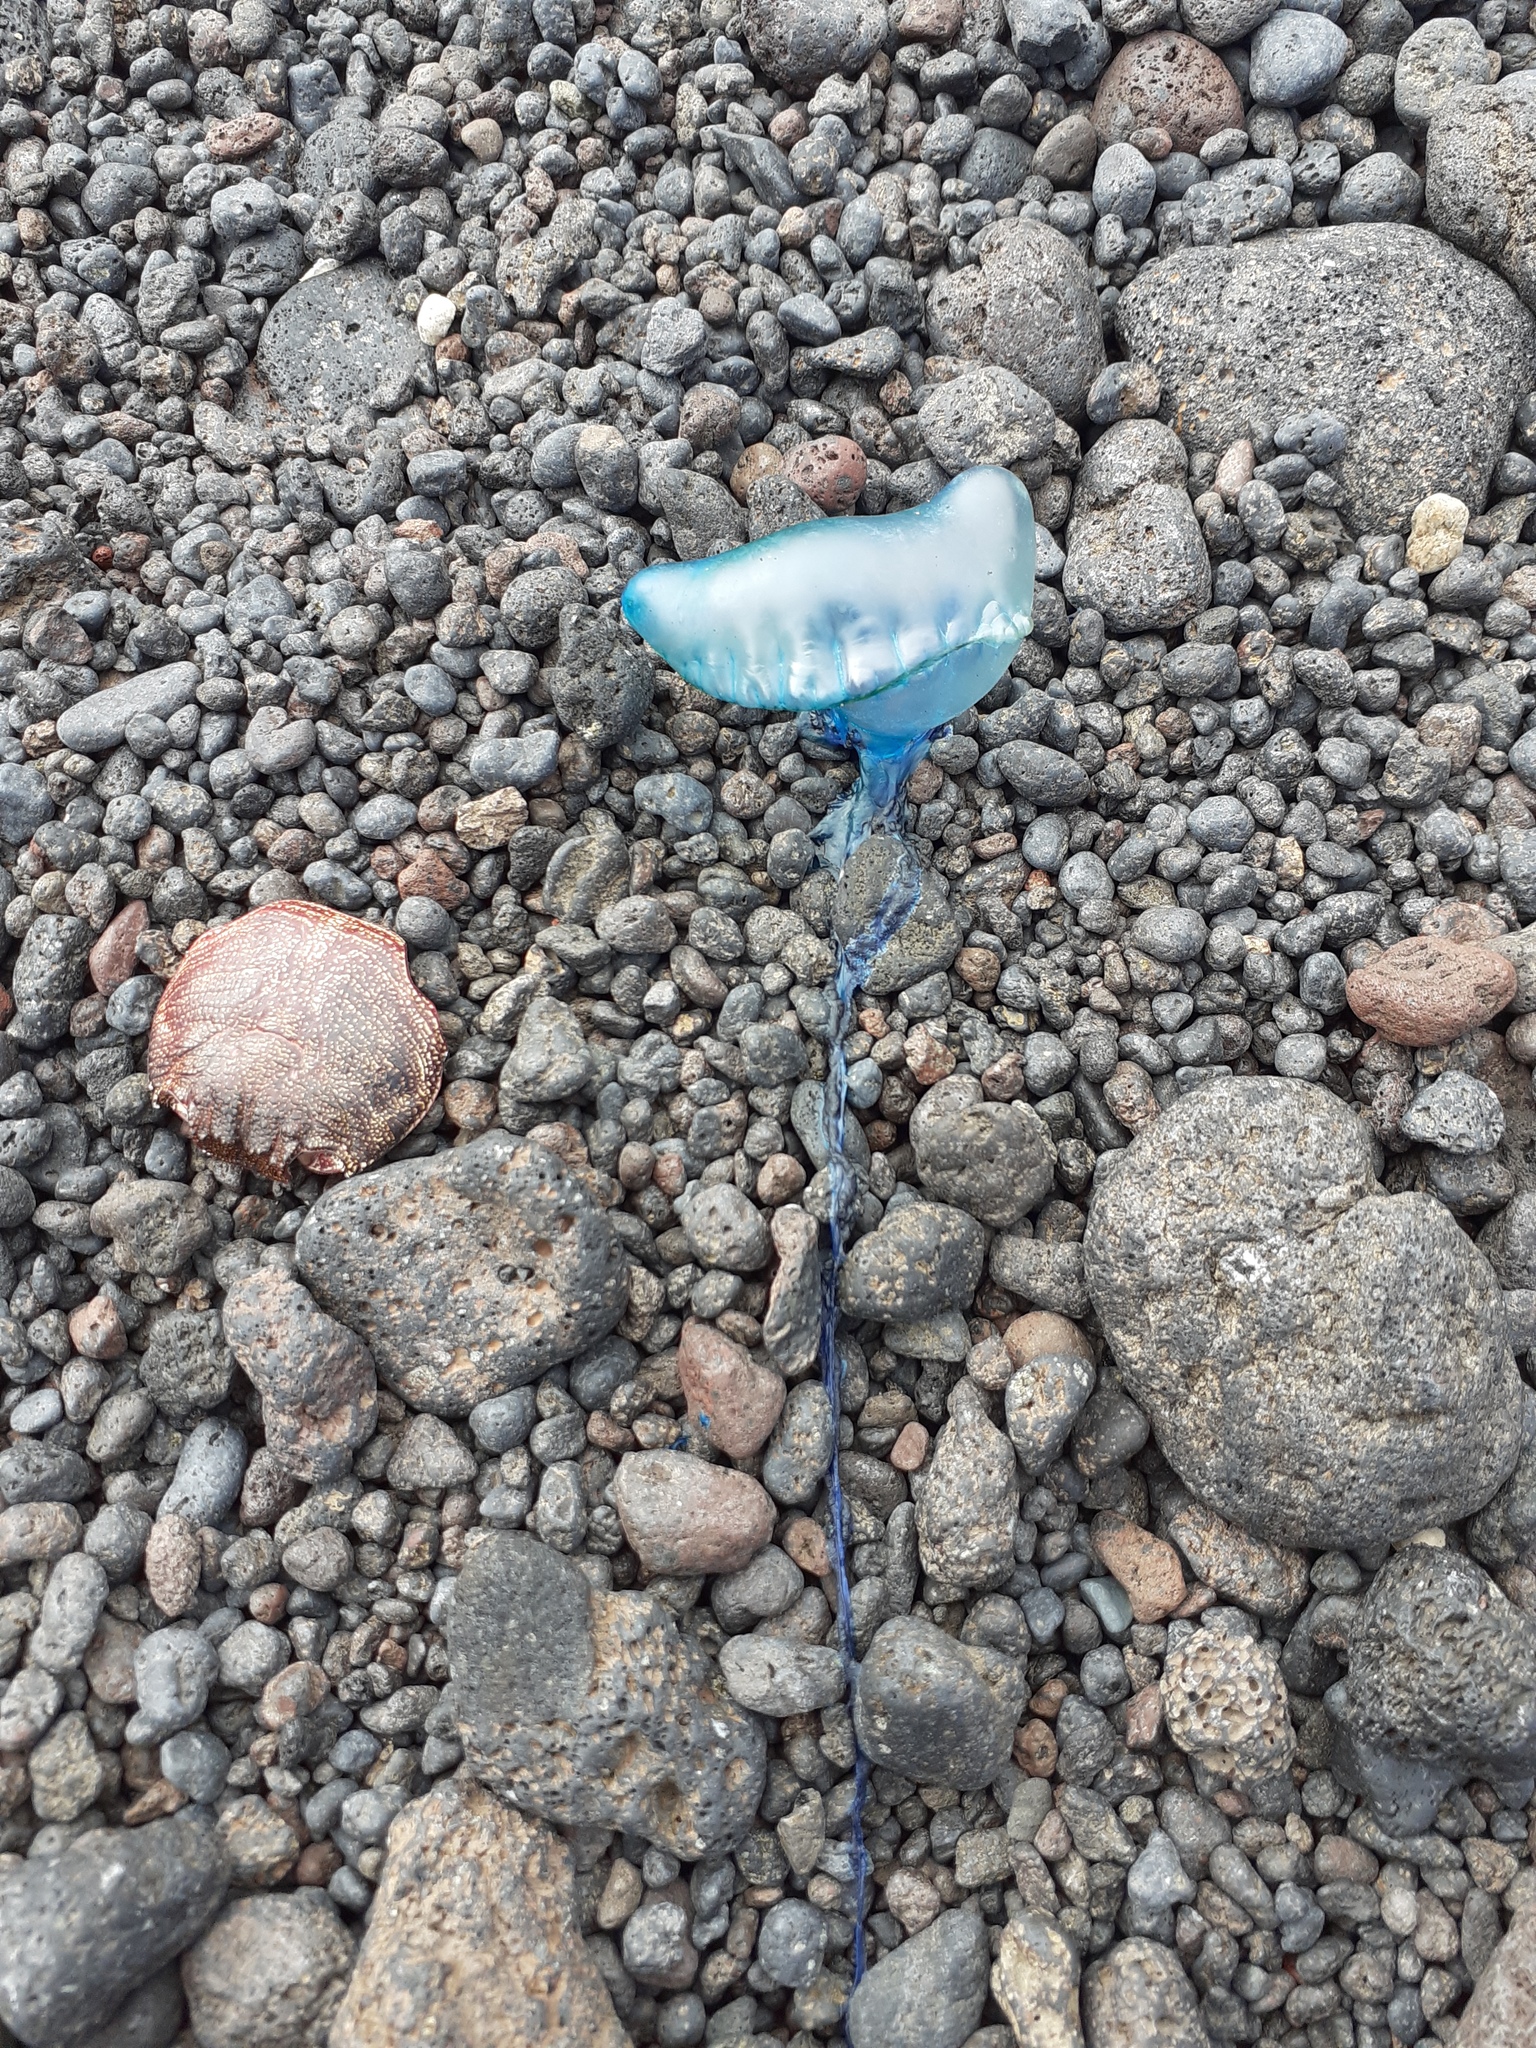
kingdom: Animalia
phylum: Cnidaria
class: Hydrozoa
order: Siphonophorae
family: Physaliidae
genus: Physalia
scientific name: Physalia physalis
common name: Portuguese man-of-war
